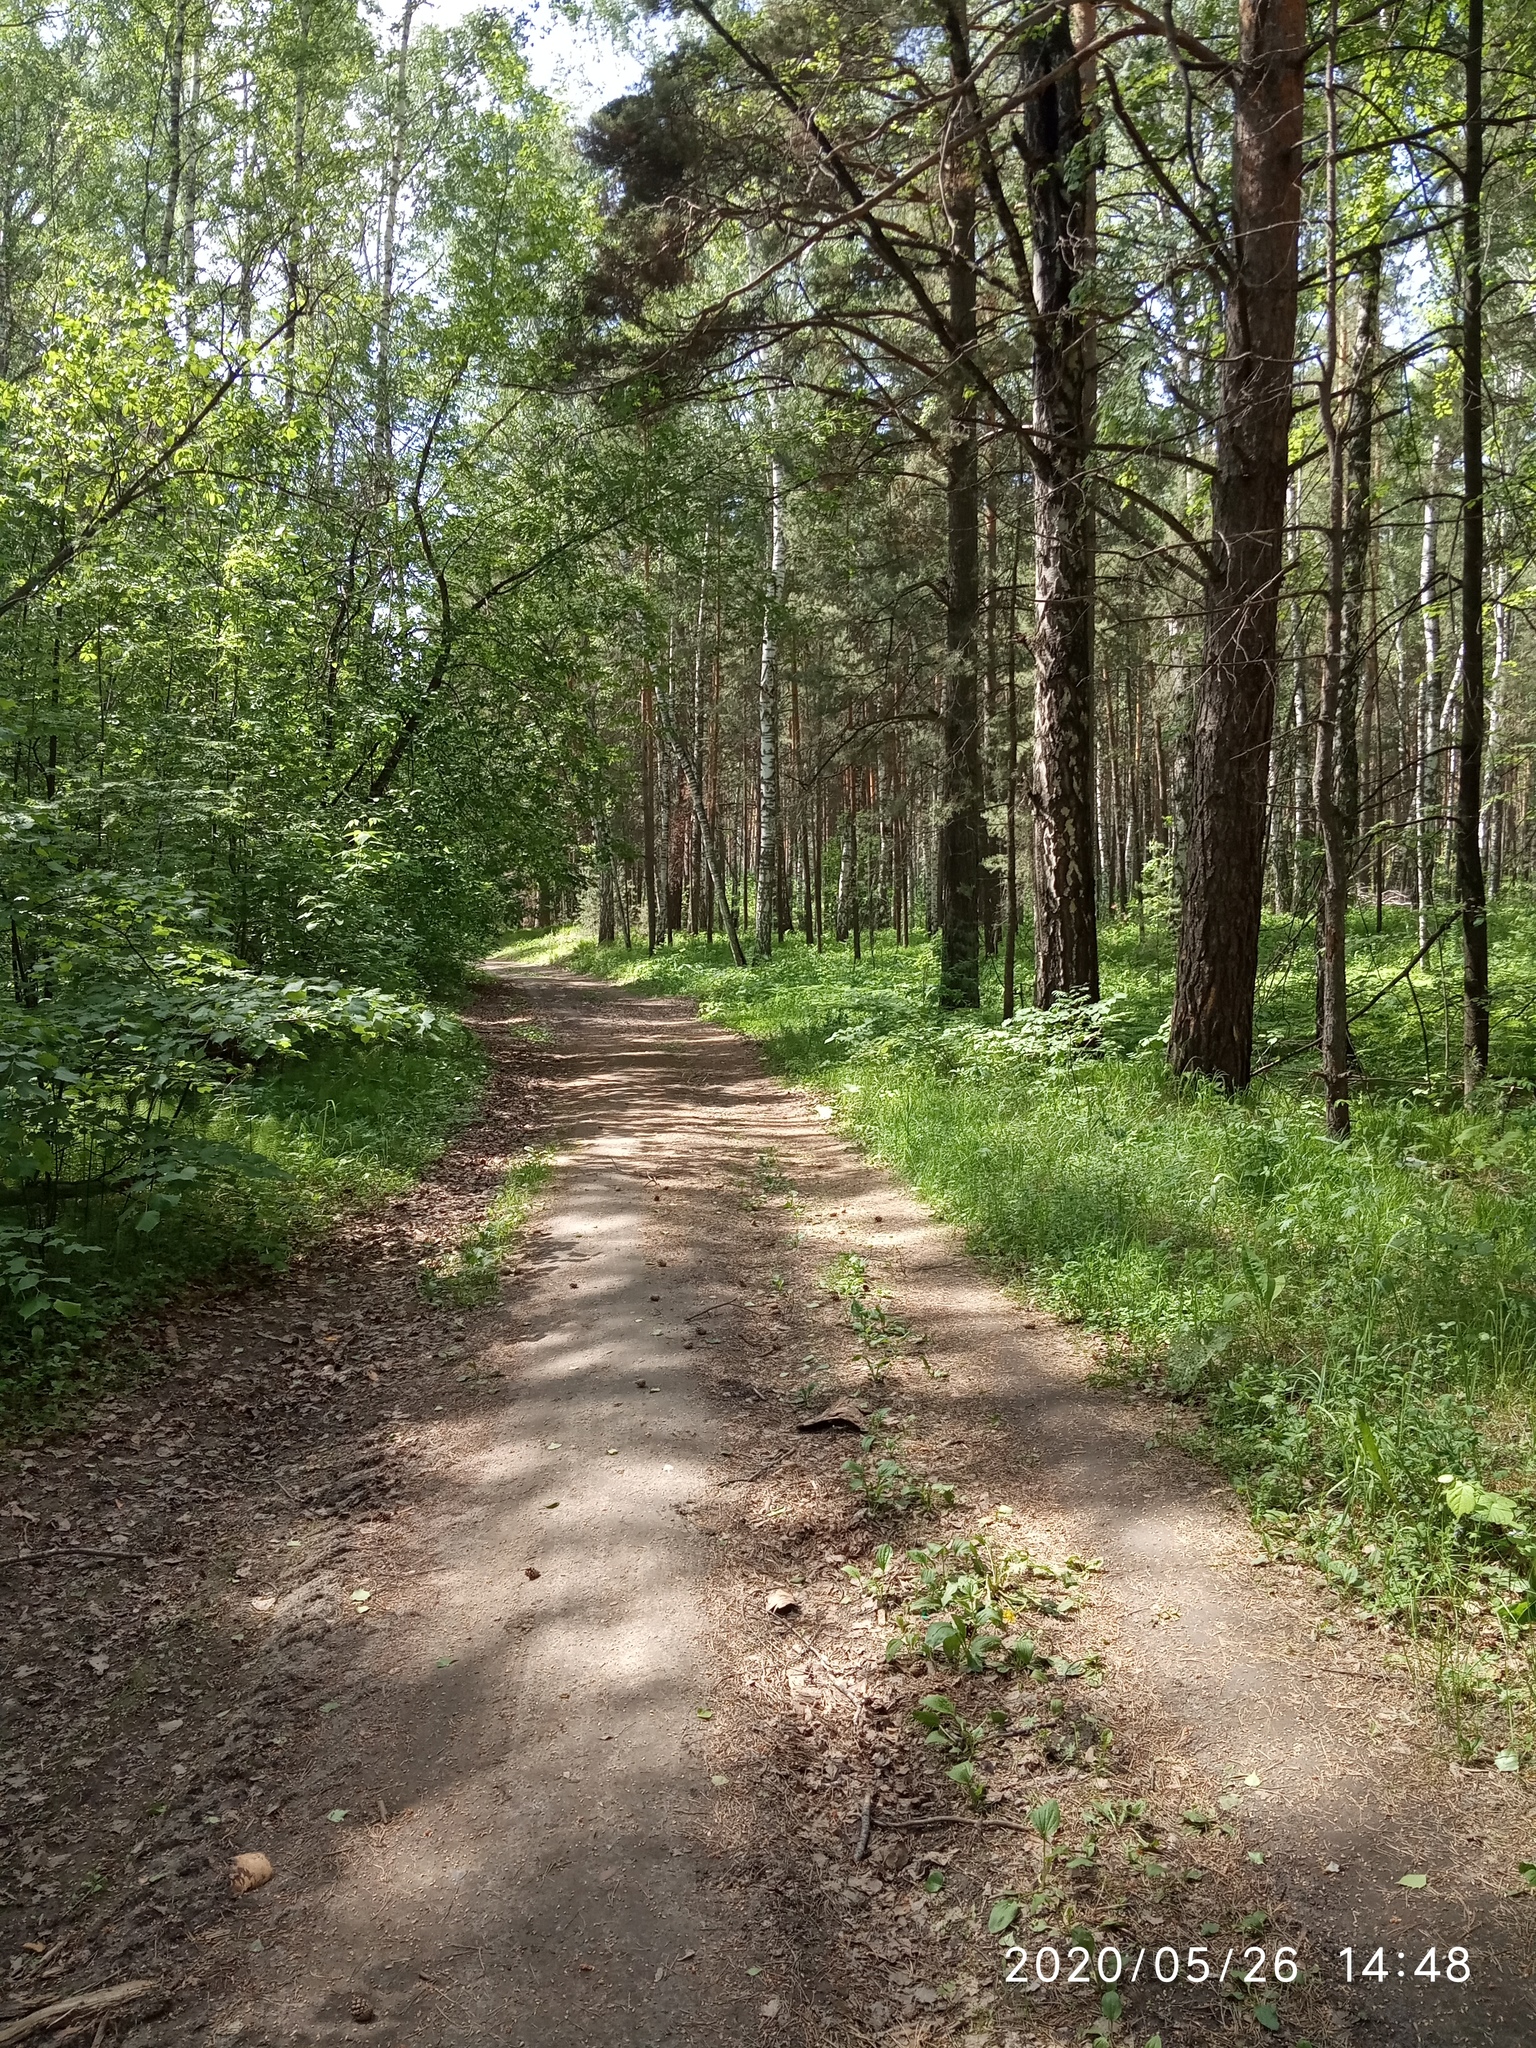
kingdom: Plantae
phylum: Tracheophyta
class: Liliopsida
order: Asparagales
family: Asparagaceae
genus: Maianthemum
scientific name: Maianthemum bifolium
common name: May lily
